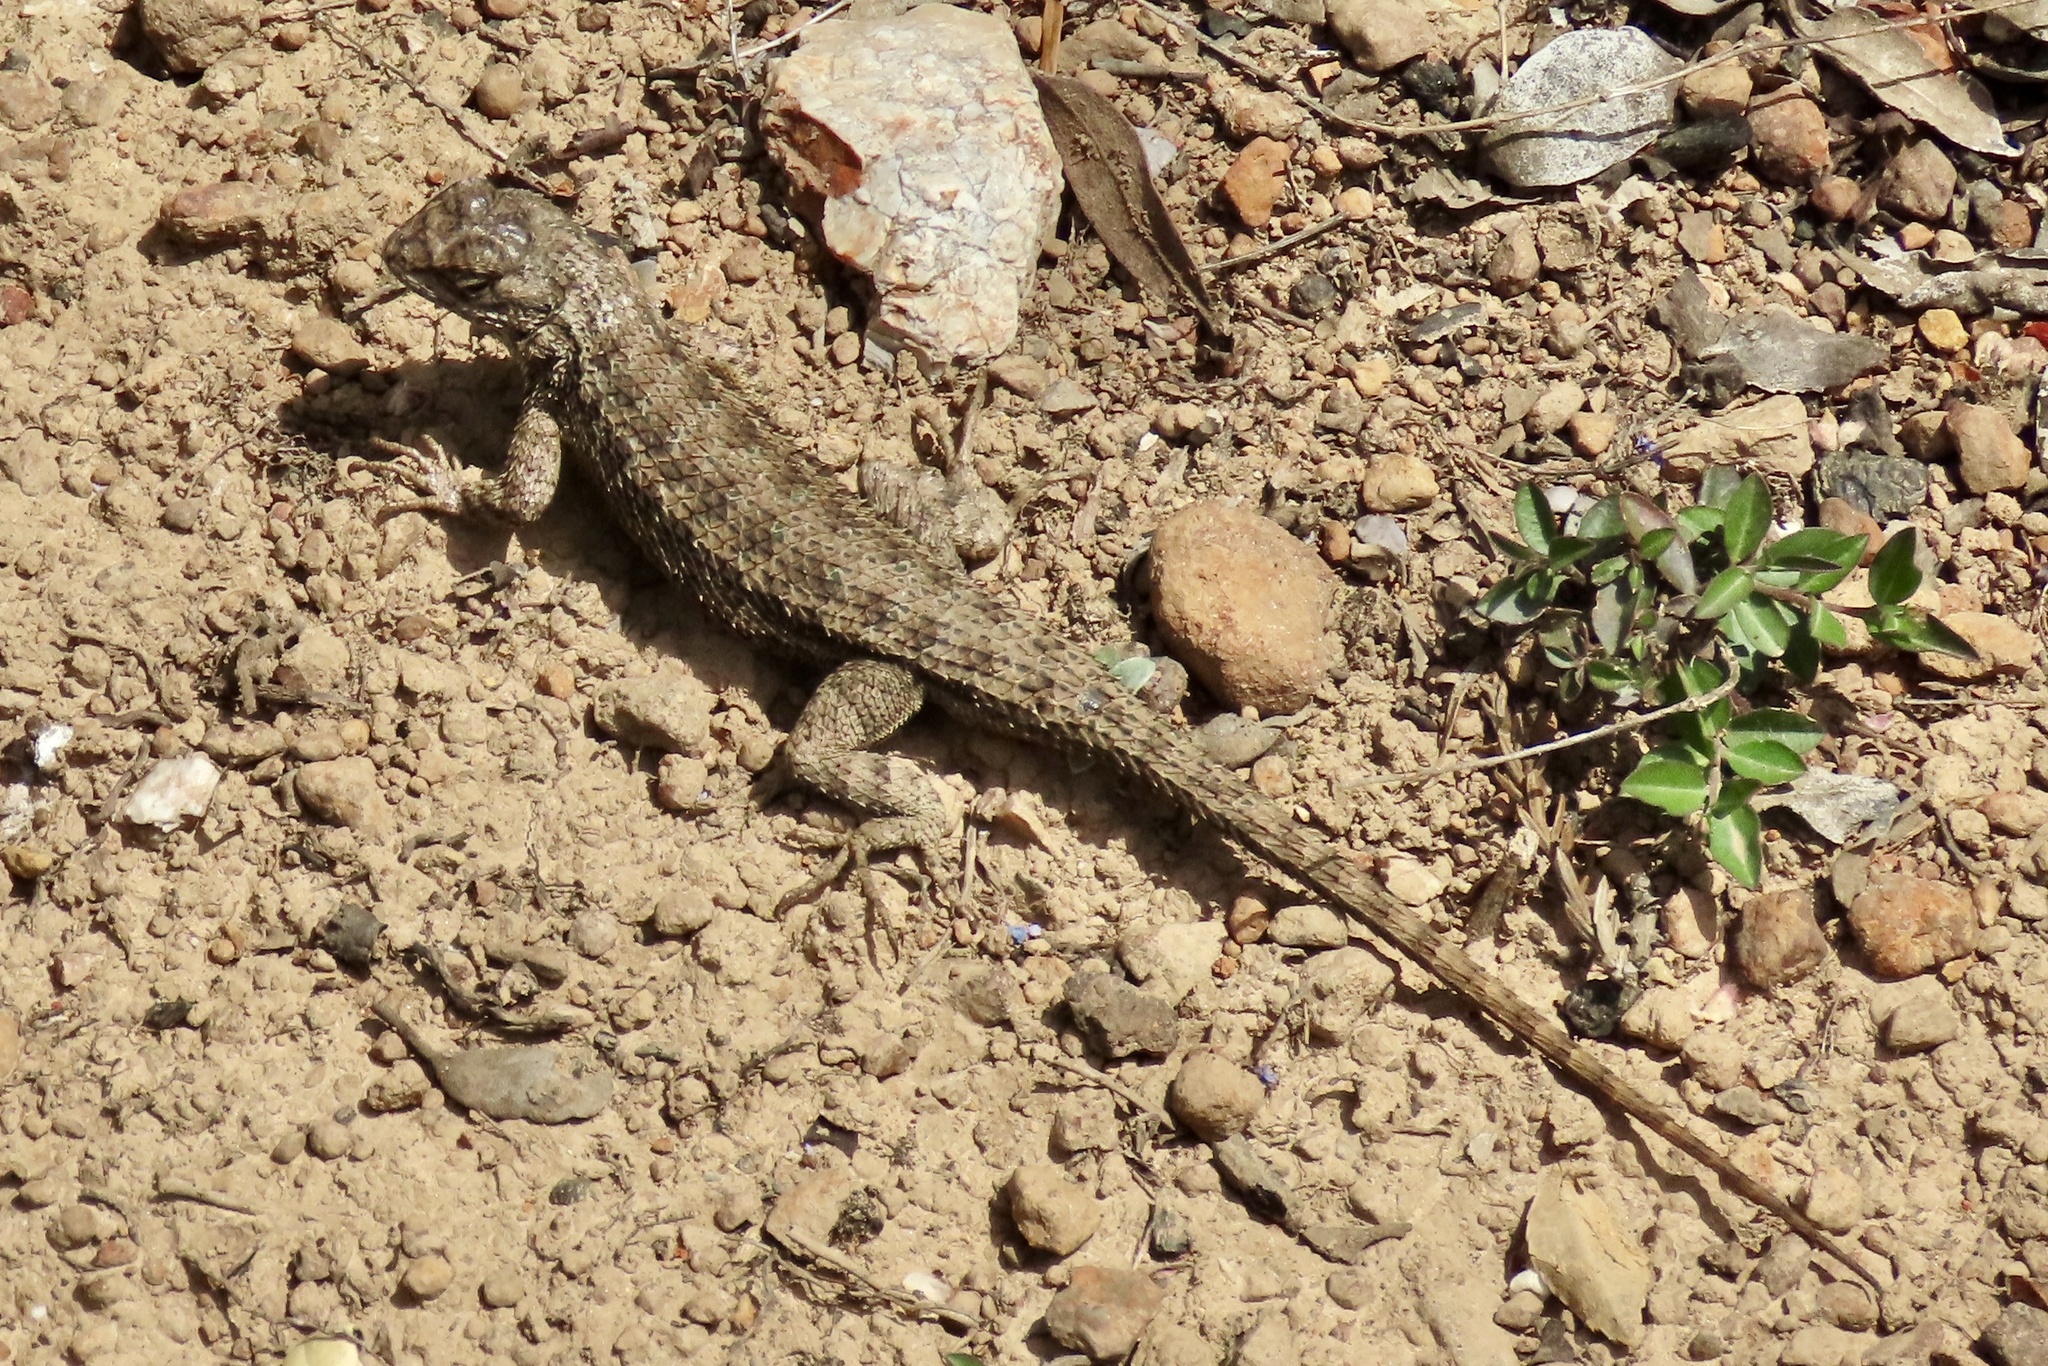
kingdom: Animalia
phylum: Chordata
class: Squamata
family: Phrynosomatidae
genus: Sceloporus
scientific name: Sceloporus occidentalis
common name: Western fence lizard
